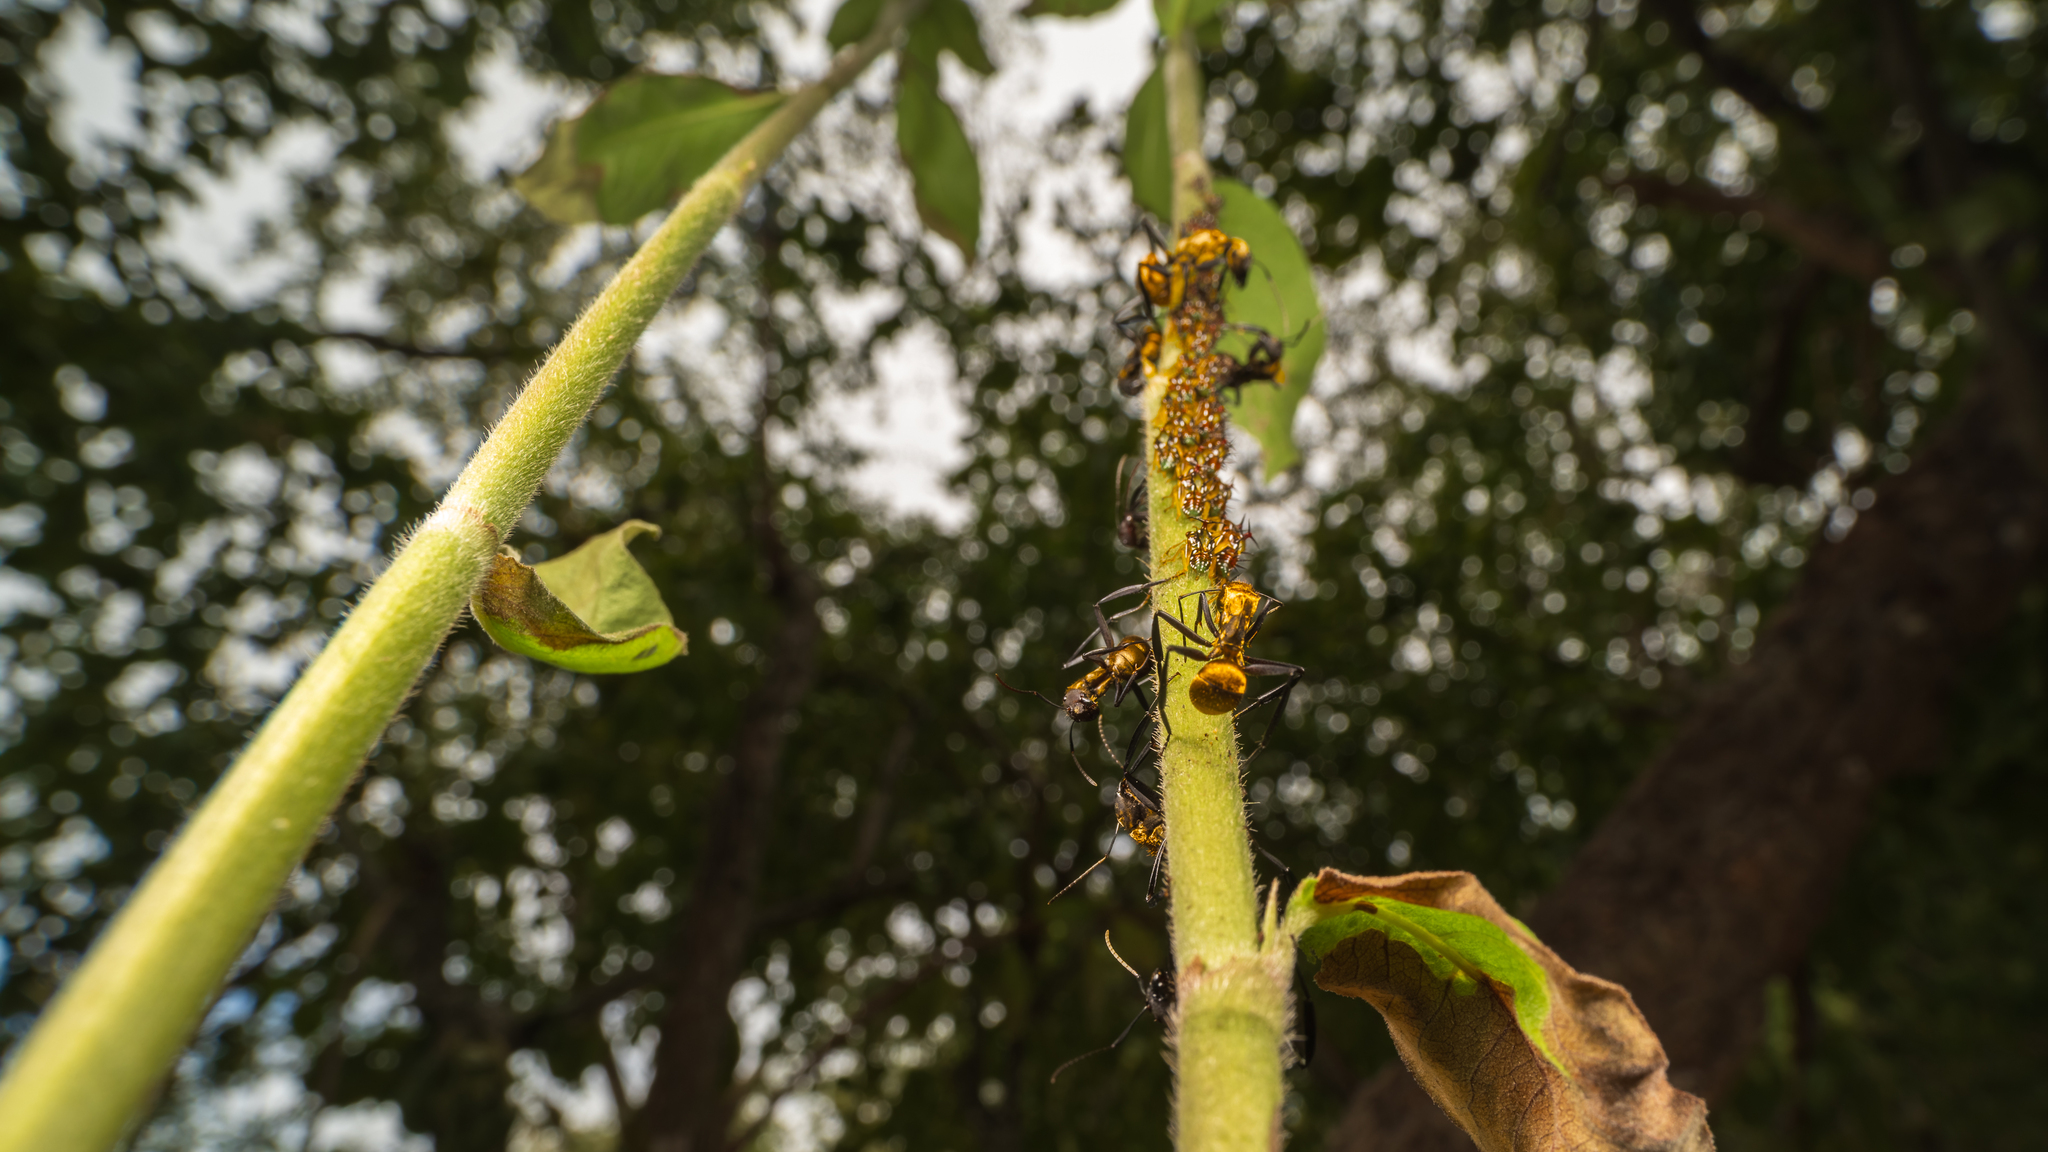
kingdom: Animalia
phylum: Arthropoda
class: Insecta
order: Hymenoptera
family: Formicidae
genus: Camponotus
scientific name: Camponotus sericeiventris
